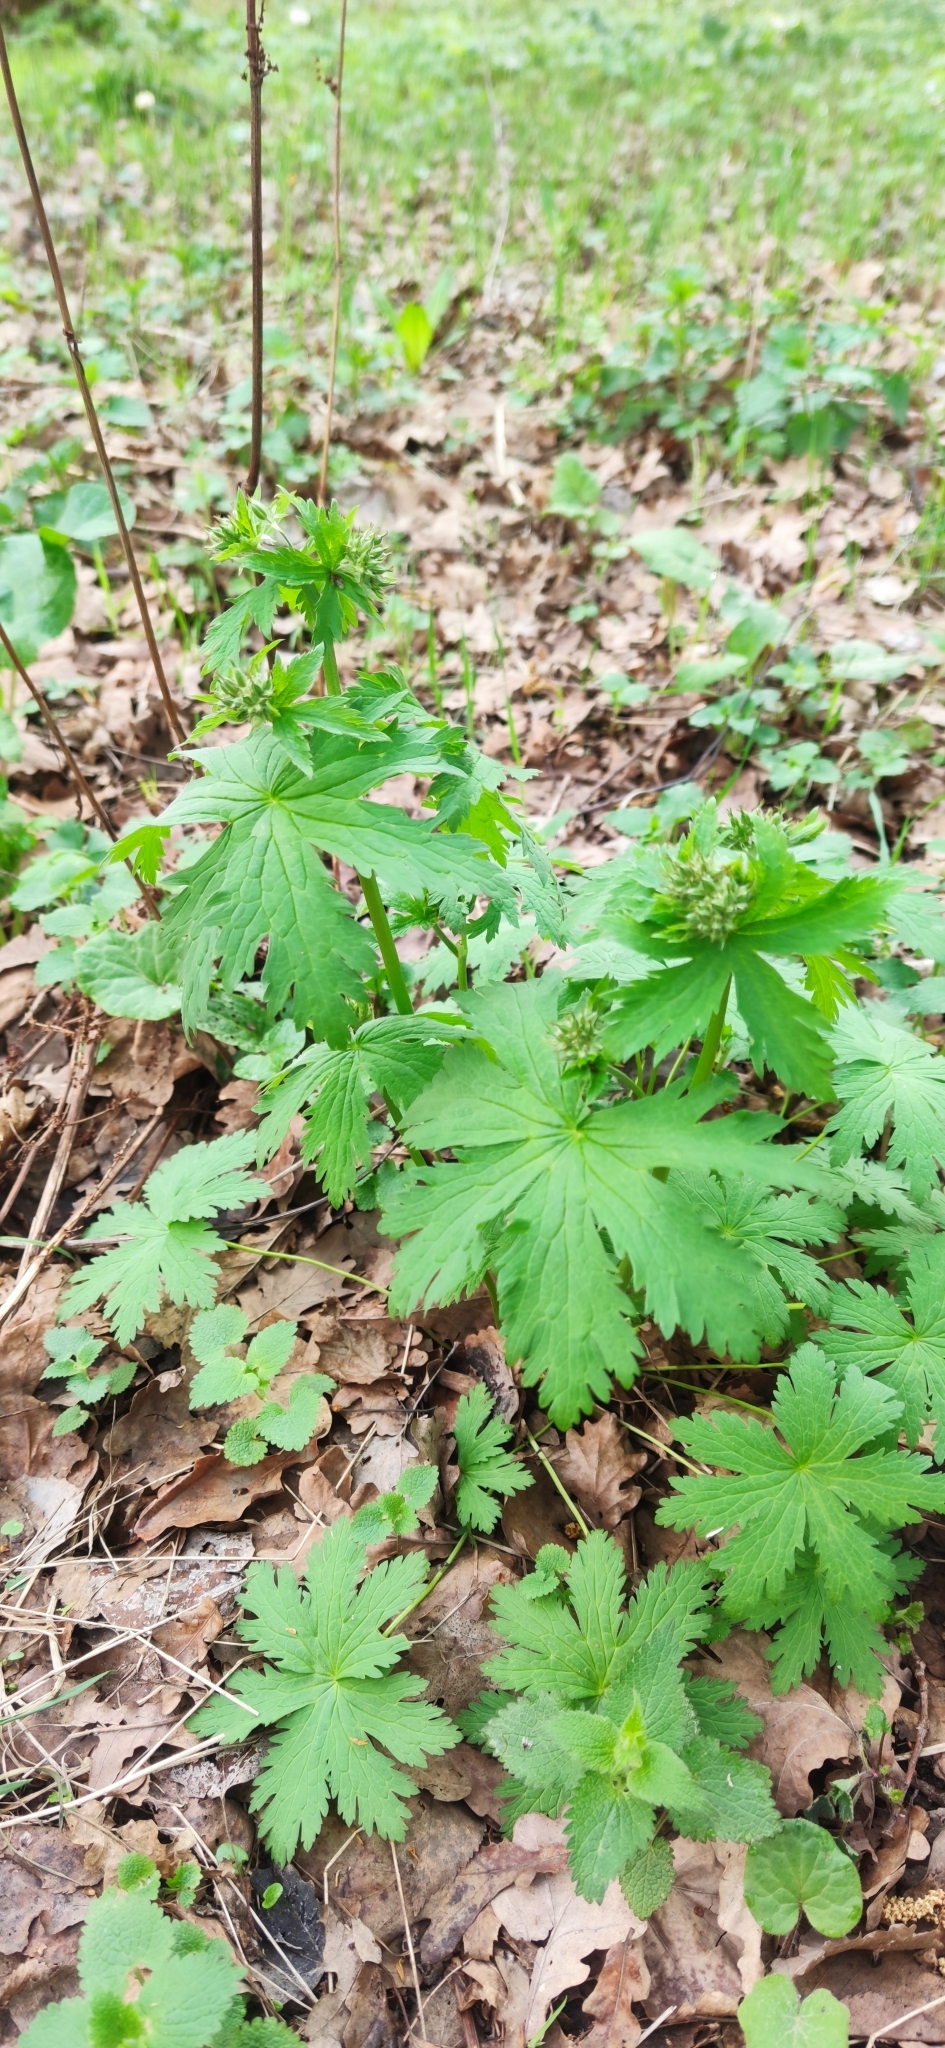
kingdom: Plantae
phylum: Tracheophyta
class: Magnoliopsida
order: Geraniales
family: Geraniaceae
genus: Geranium
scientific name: Geranium sylvaticum
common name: Wood crane's-bill
